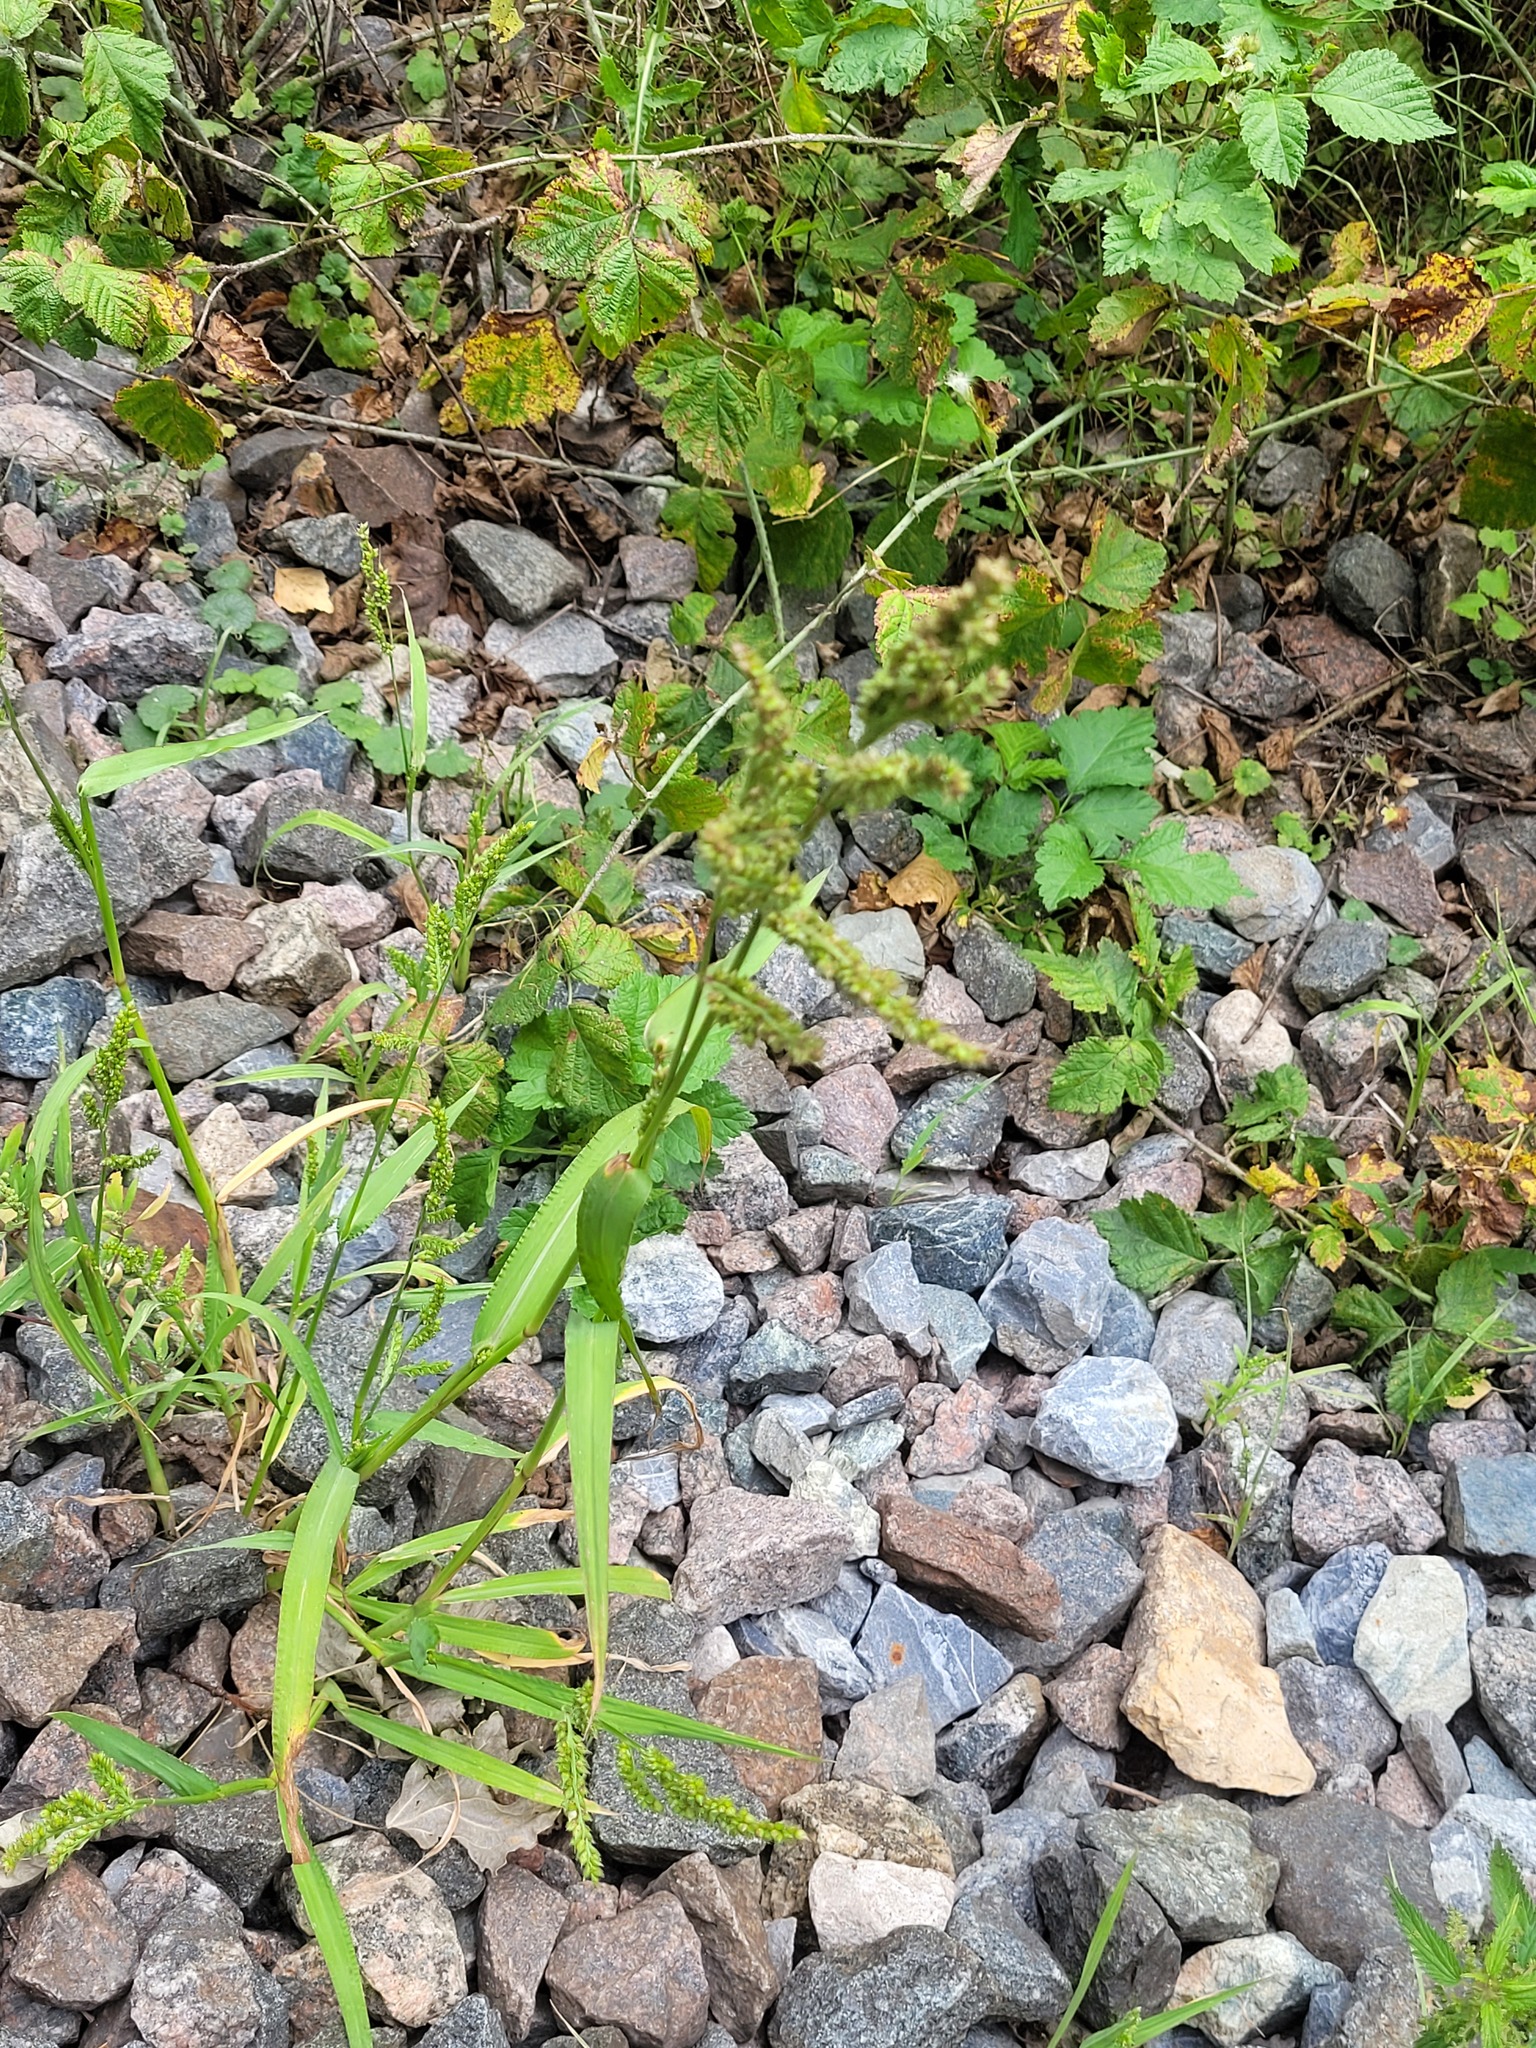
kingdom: Plantae
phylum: Tracheophyta
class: Liliopsida
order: Poales
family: Poaceae
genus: Echinochloa
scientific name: Echinochloa crus-galli
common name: Cockspur
